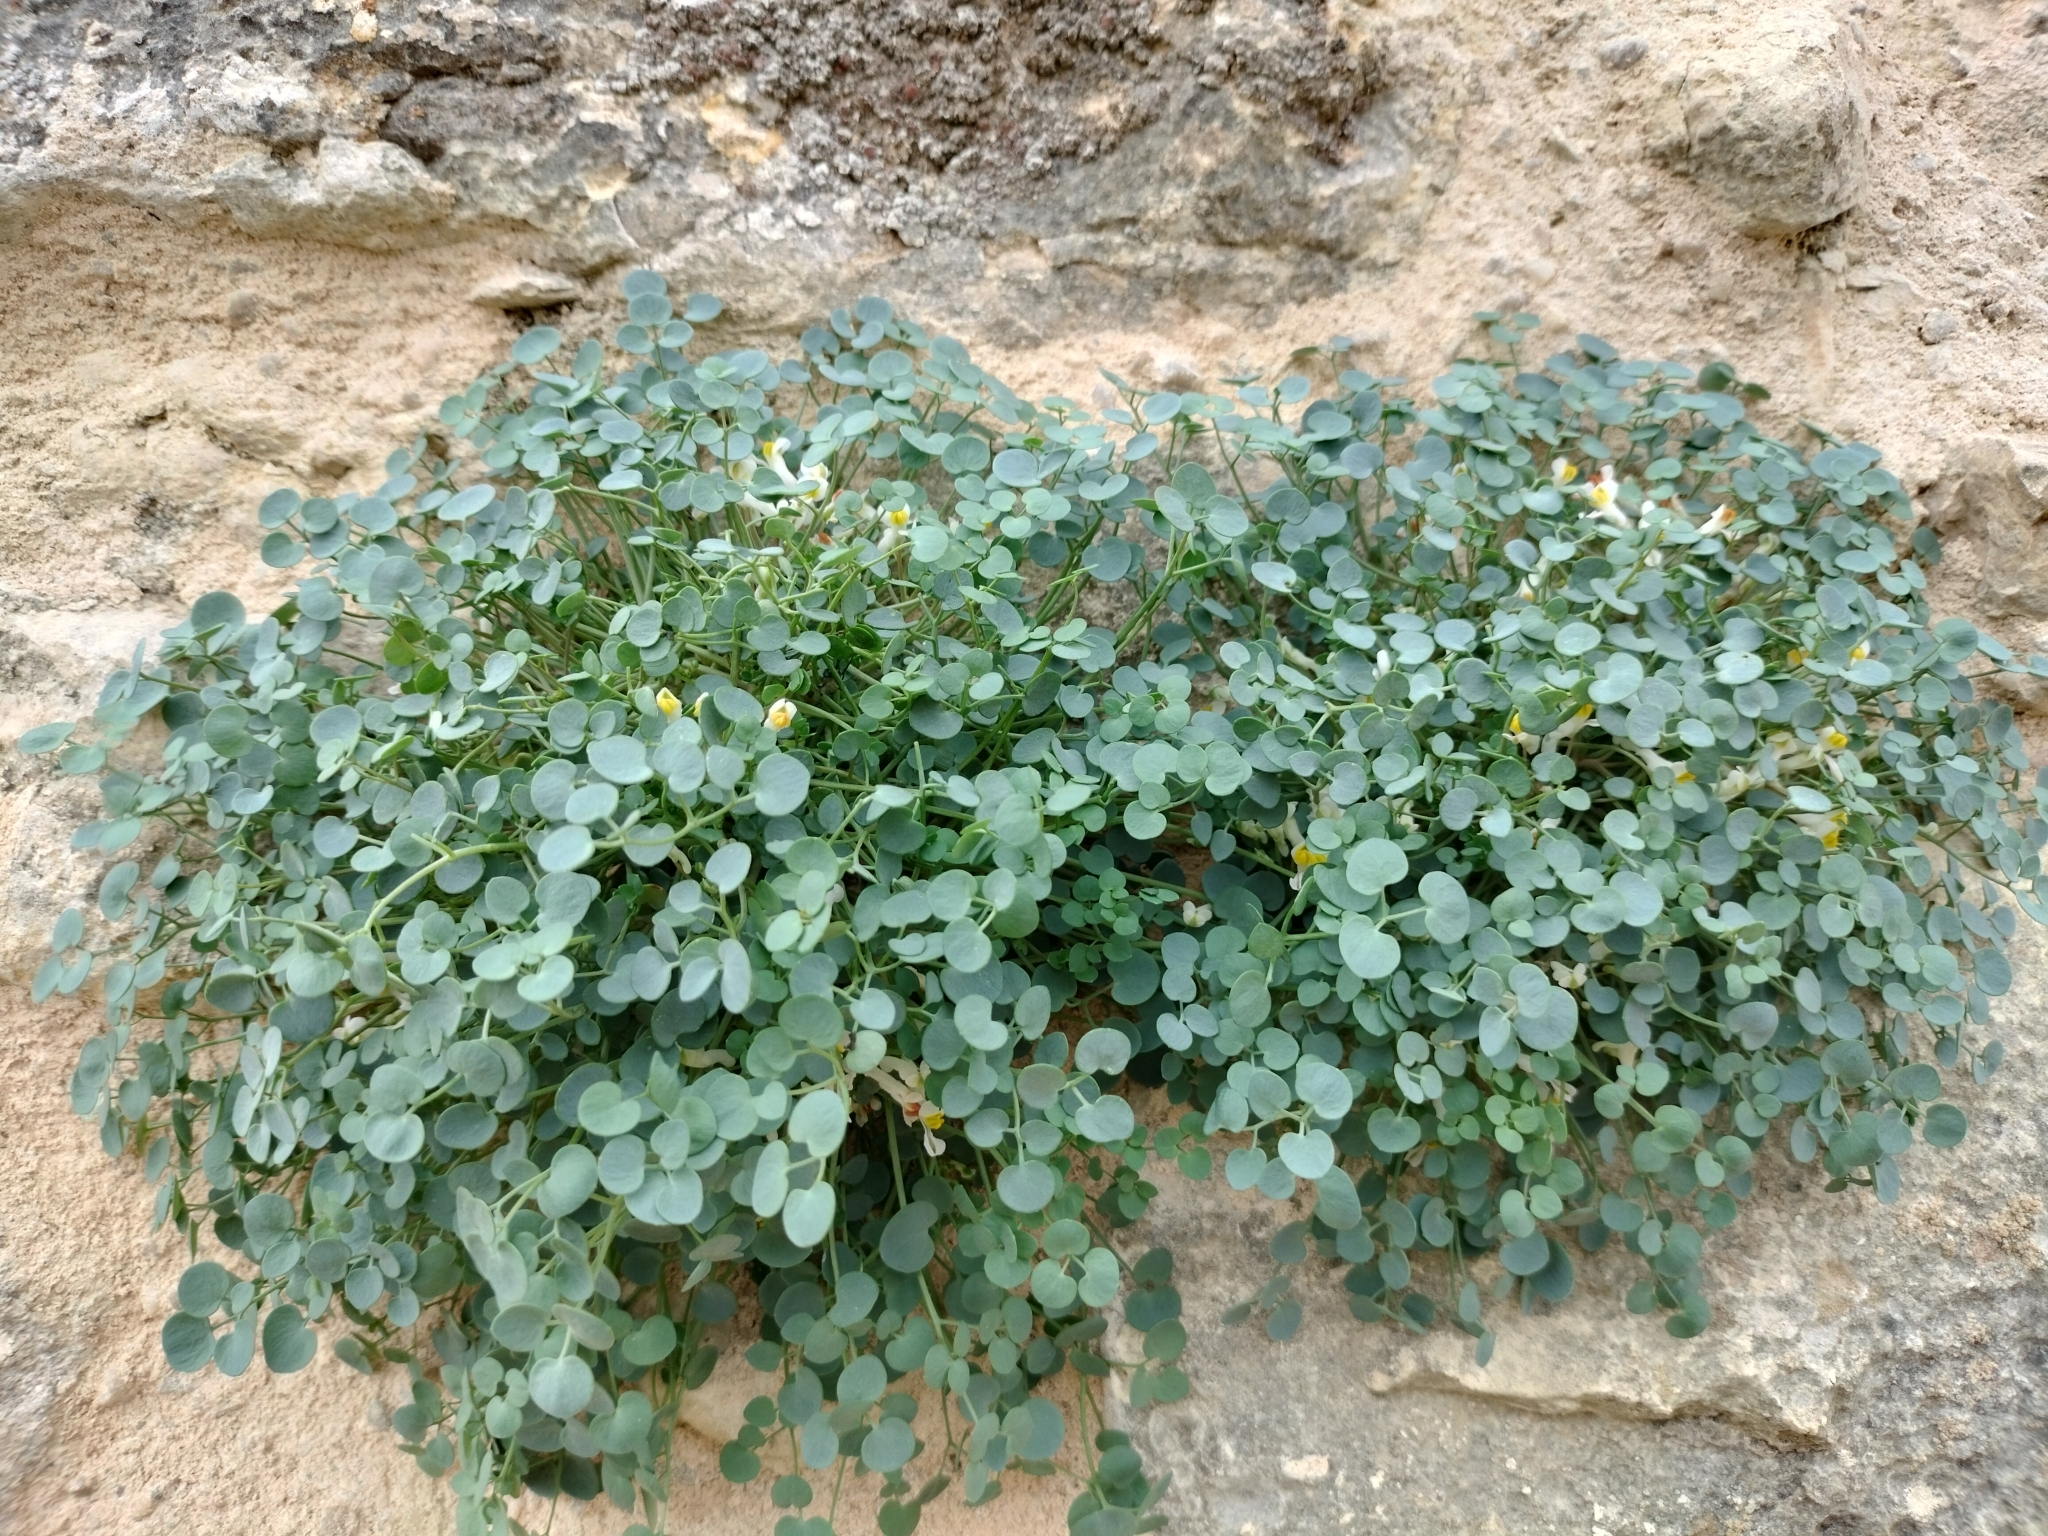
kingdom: Plantae
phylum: Tracheophyta
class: Magnoliopsida
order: Ranunculales
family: Papaveraceae
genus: Sarcocapnos
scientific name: Sarcocapnos enneaphylla
